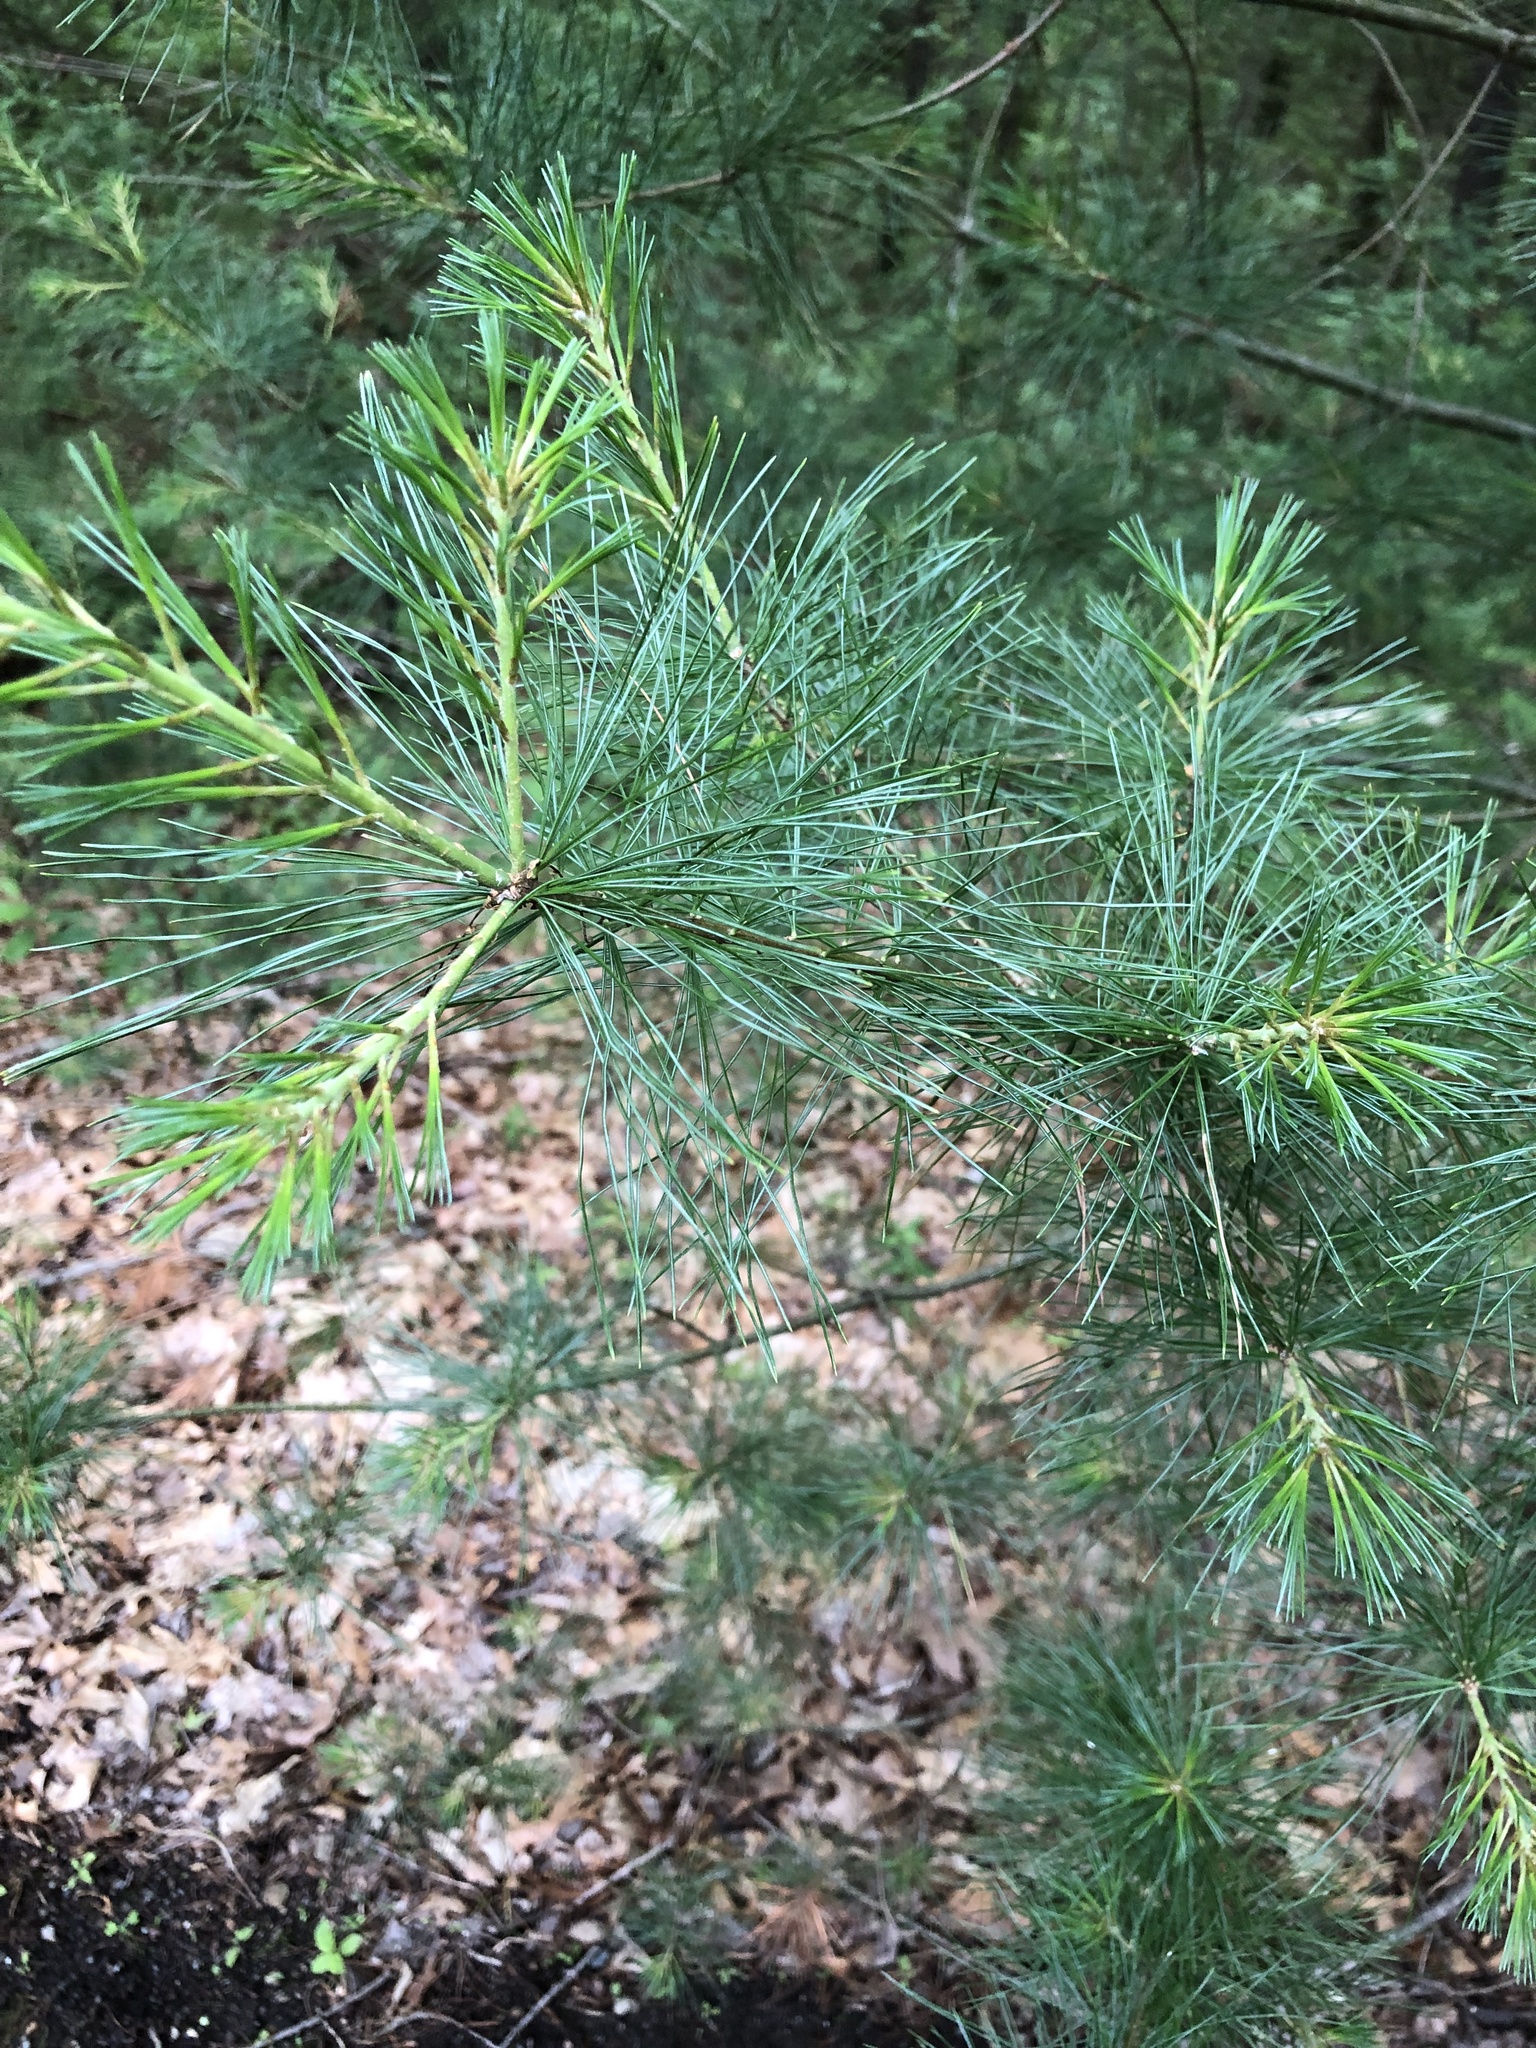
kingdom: Plantae
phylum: Tracheophyta
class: Pinopsida
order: Pinales
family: Pinaceae
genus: Pinus
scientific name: Pinus strobus
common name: Weymouth pine
